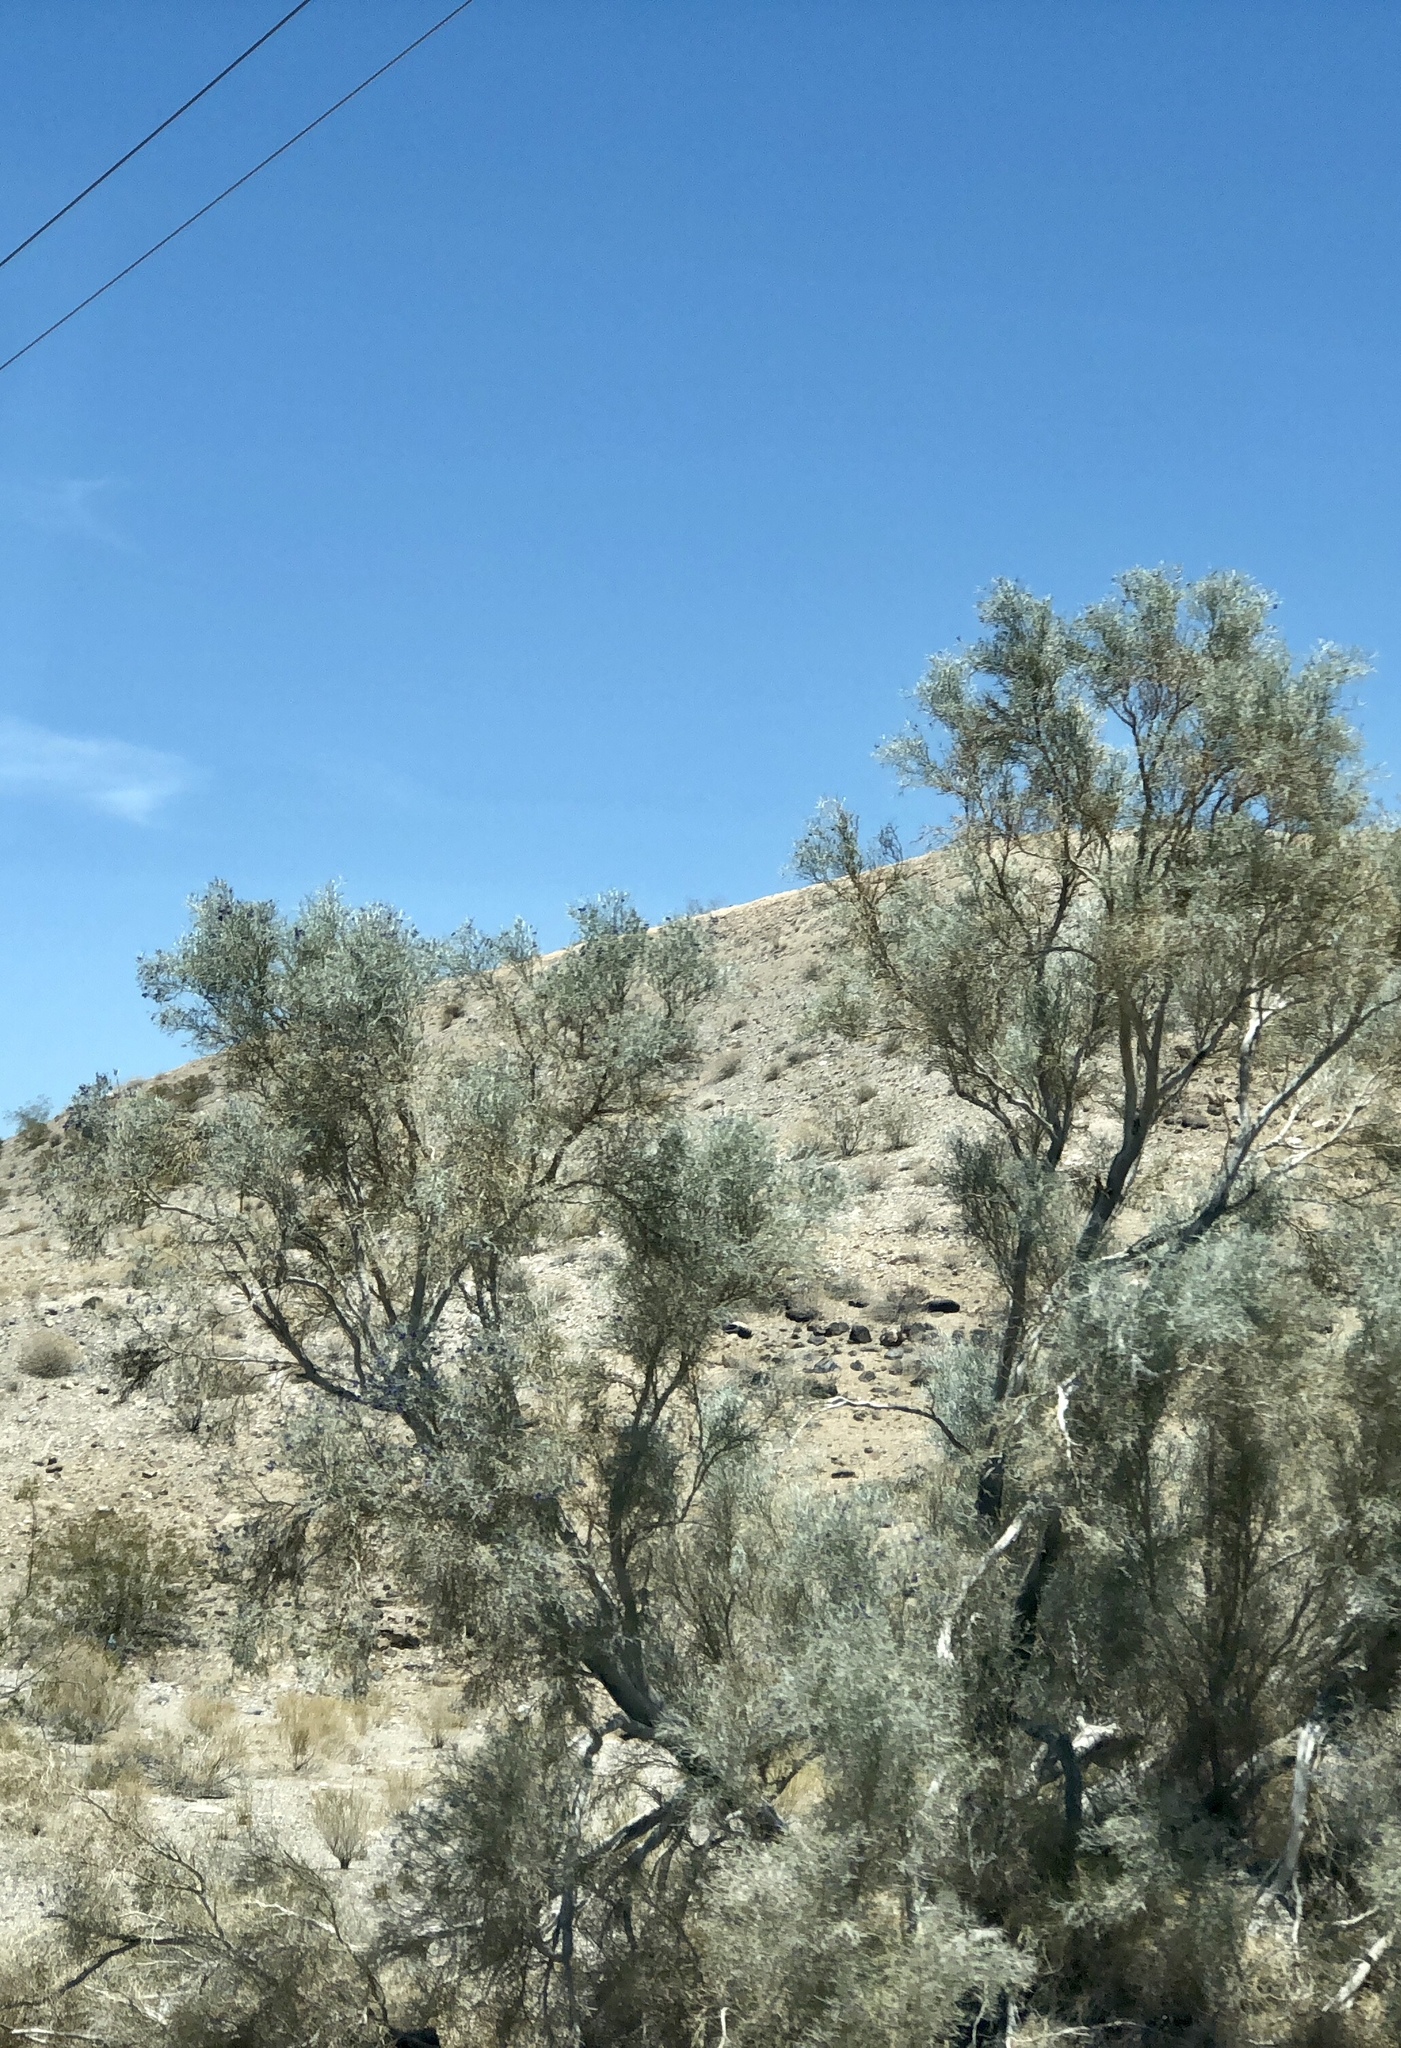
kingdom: Plantae
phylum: Tracheophyta
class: Magnoliopsida
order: Fabales
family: Fabaceae
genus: Psorothamnus
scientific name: Psorothamnus spinosus
